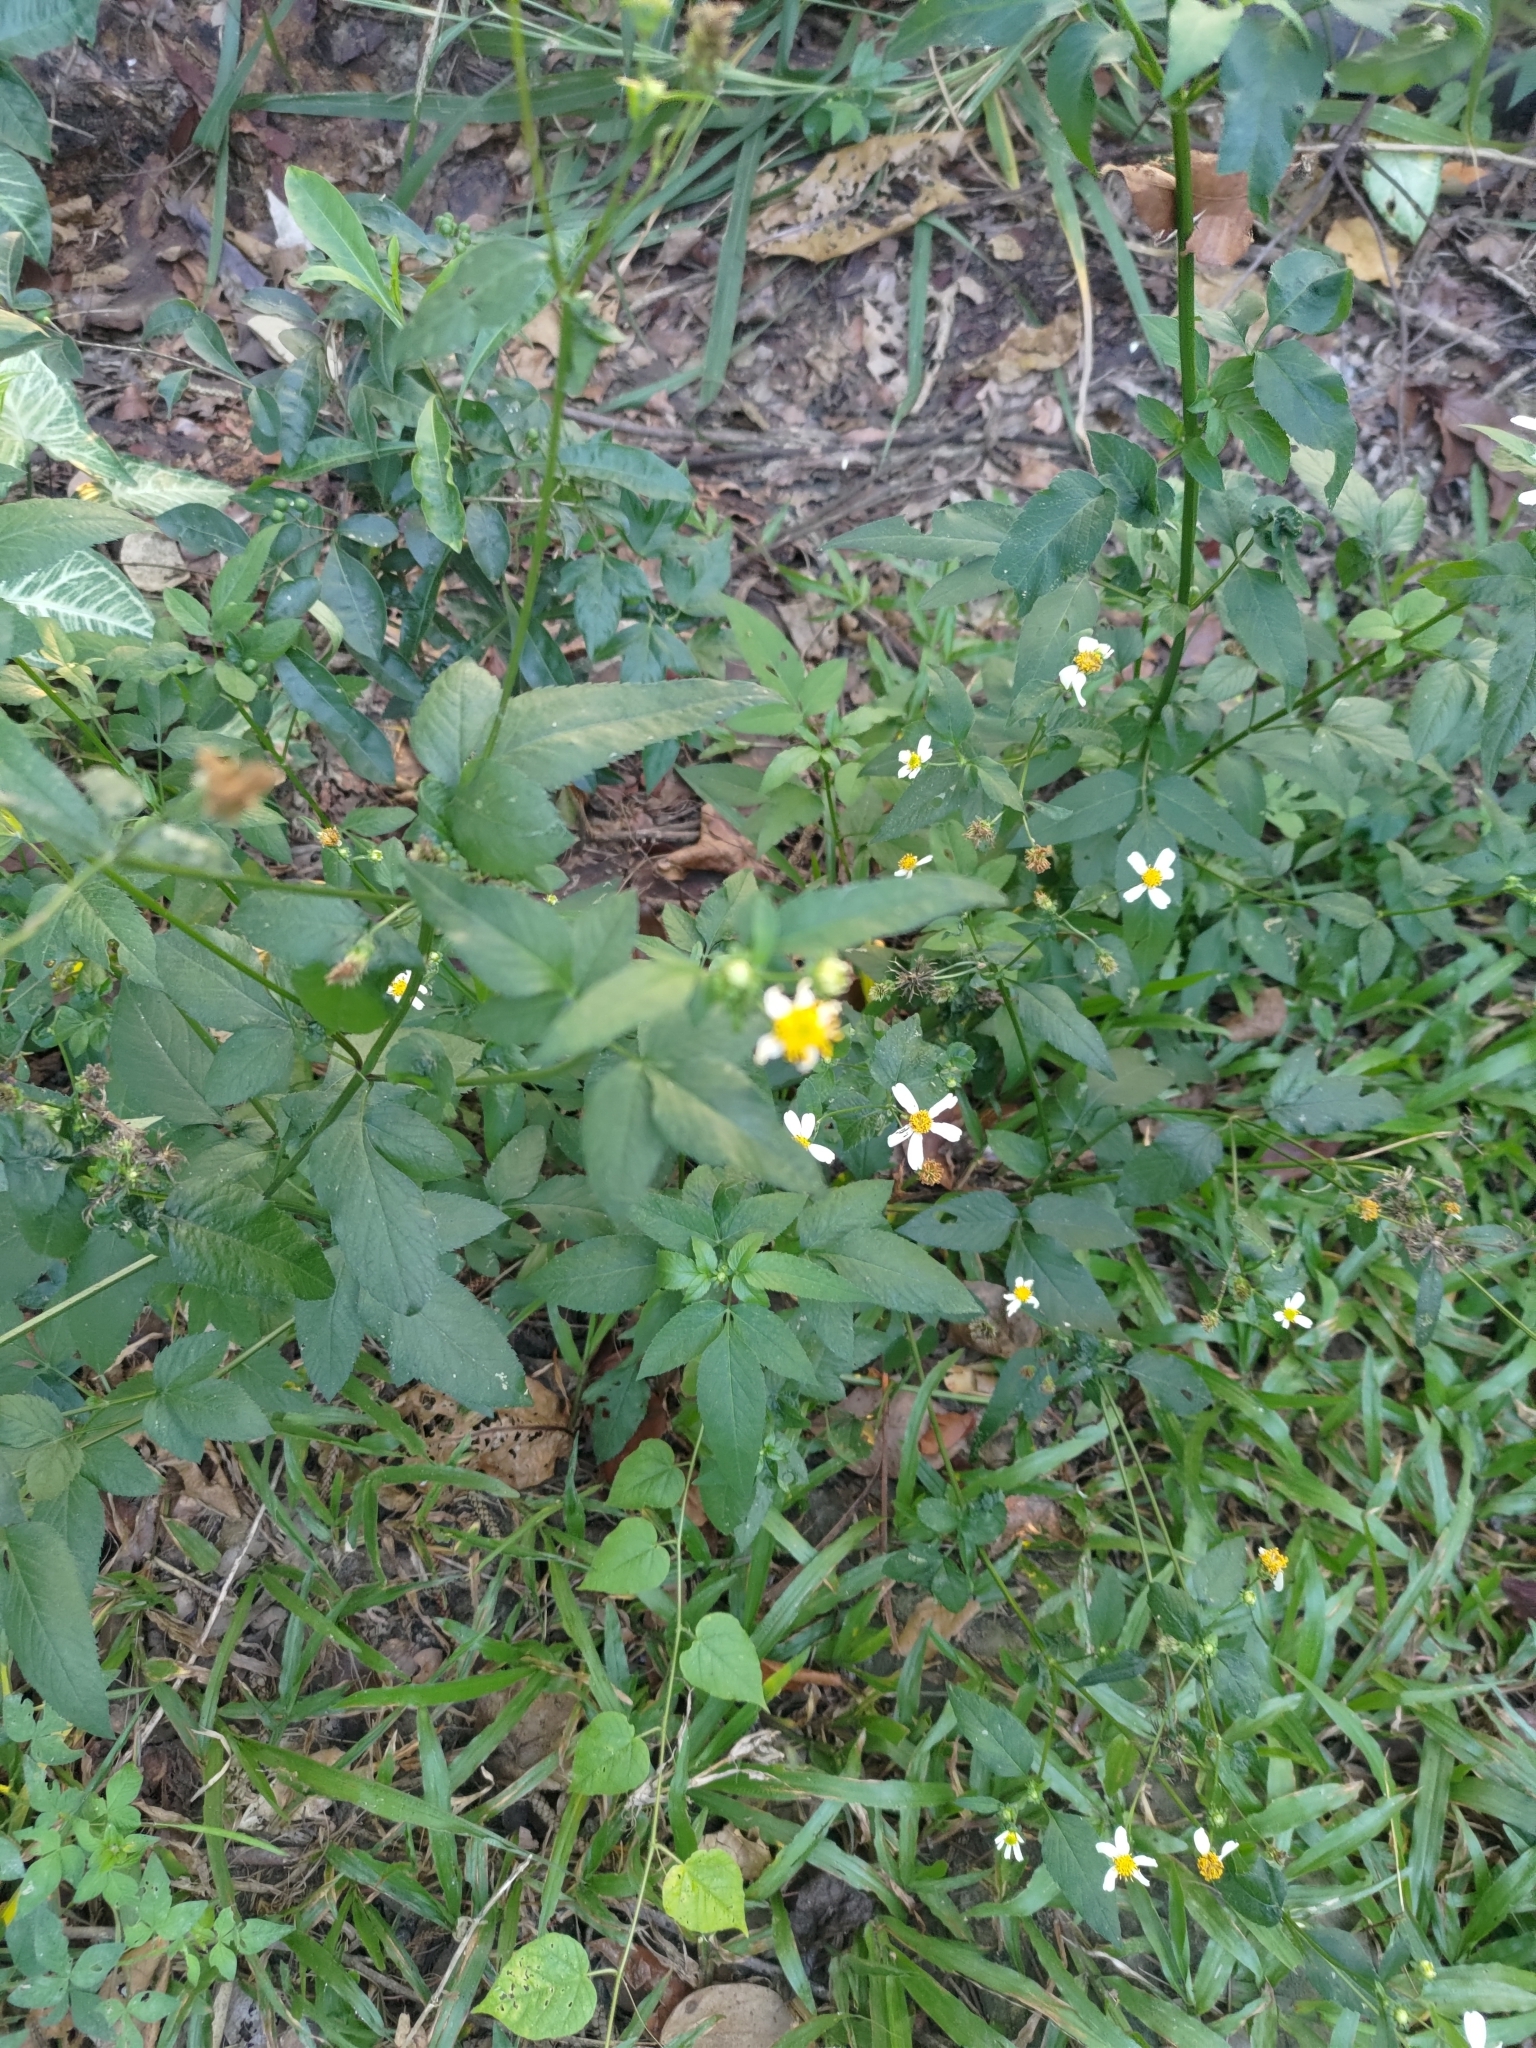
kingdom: Plantae
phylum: Tracheophyta
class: Magnoliopsida
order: Asterales
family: Asteraceae
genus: Bidens
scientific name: Bidens alba
